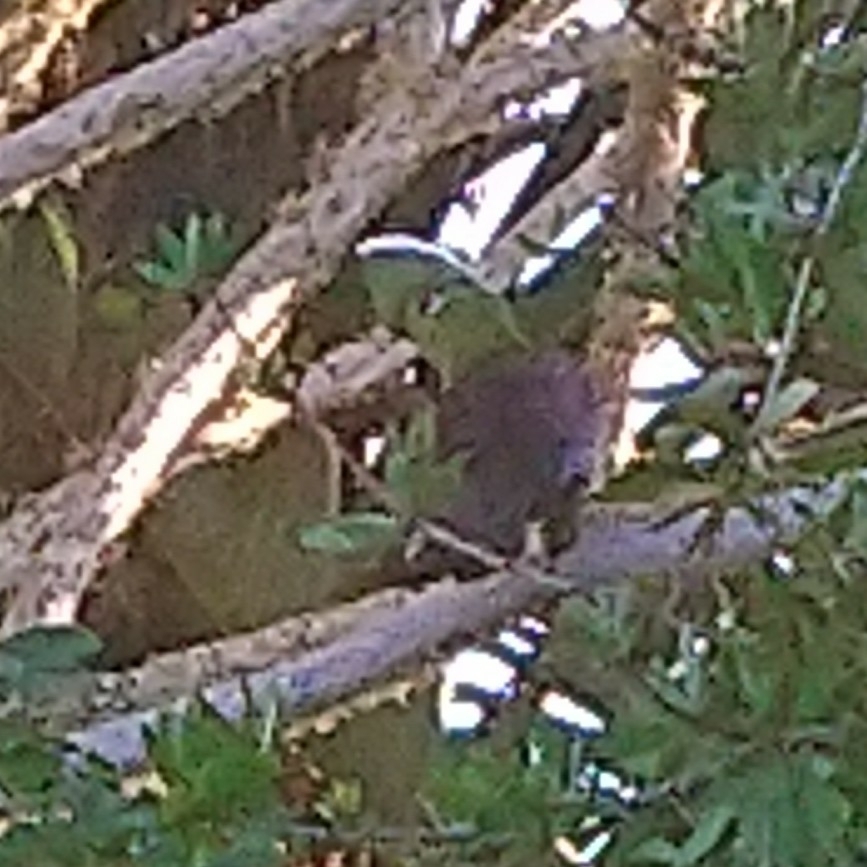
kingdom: Animalia
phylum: Chordata
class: Aves
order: Musophagiformes
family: Musophagidae
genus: Tauraco
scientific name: Tauraco corythaix
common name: Knysna turaco
